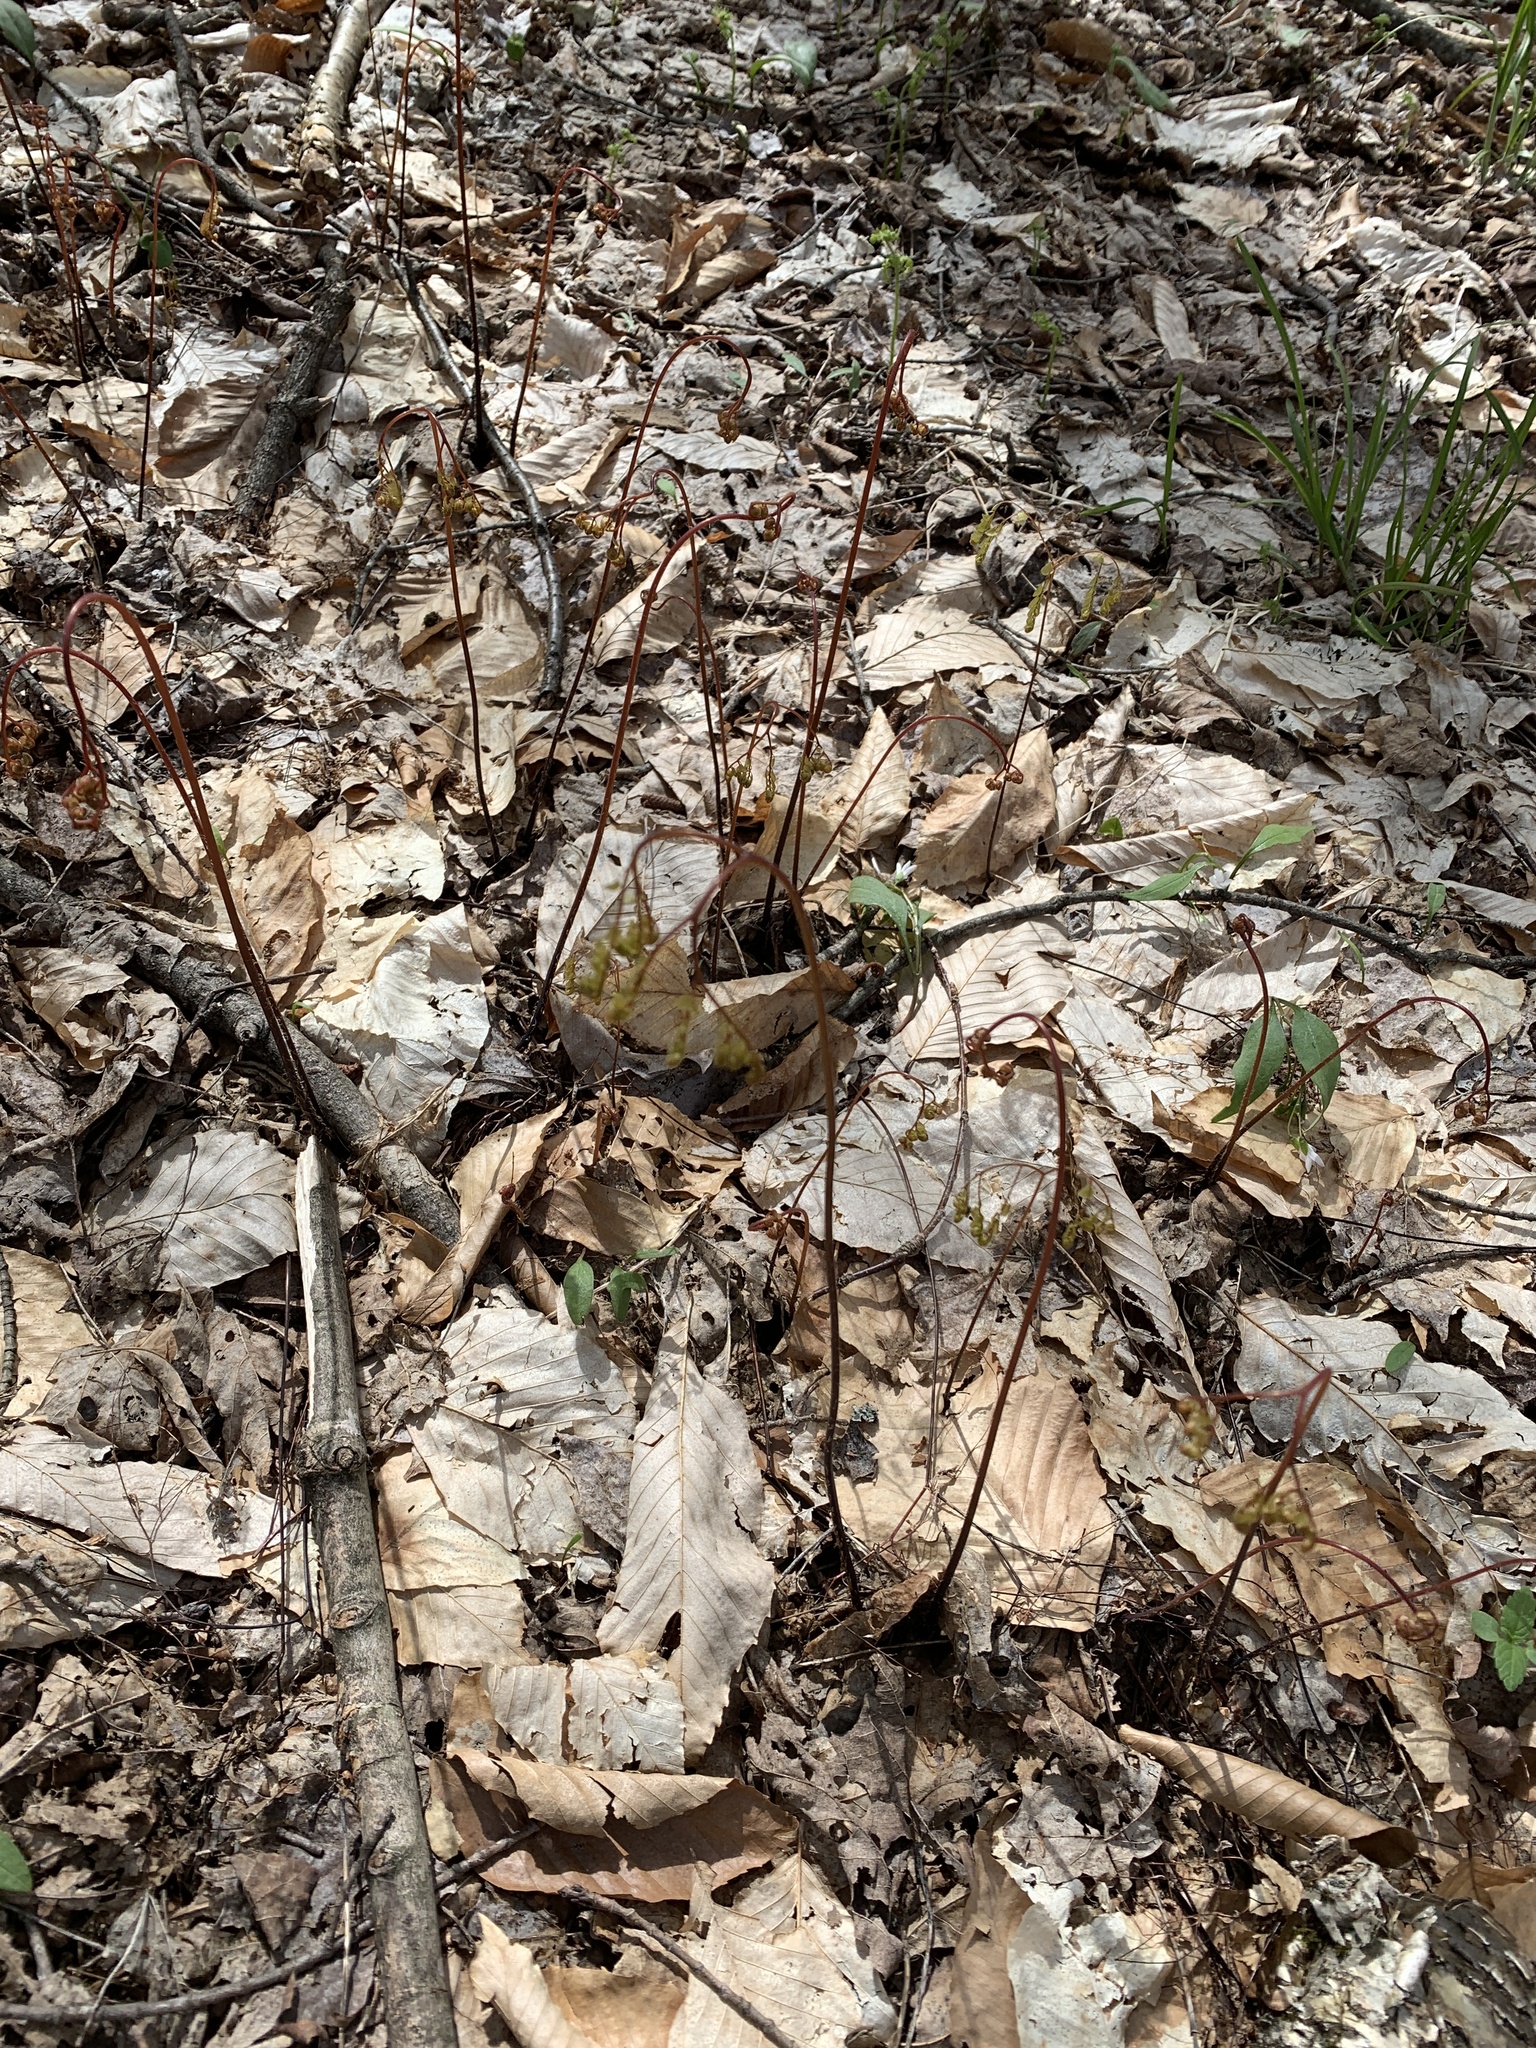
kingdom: Plantae
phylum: Tracheophyta
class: Polypodiopsida
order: Polypodiales
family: Pteridaceae
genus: Adiantum
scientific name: Adiantum pedatum
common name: Five-finger fern
